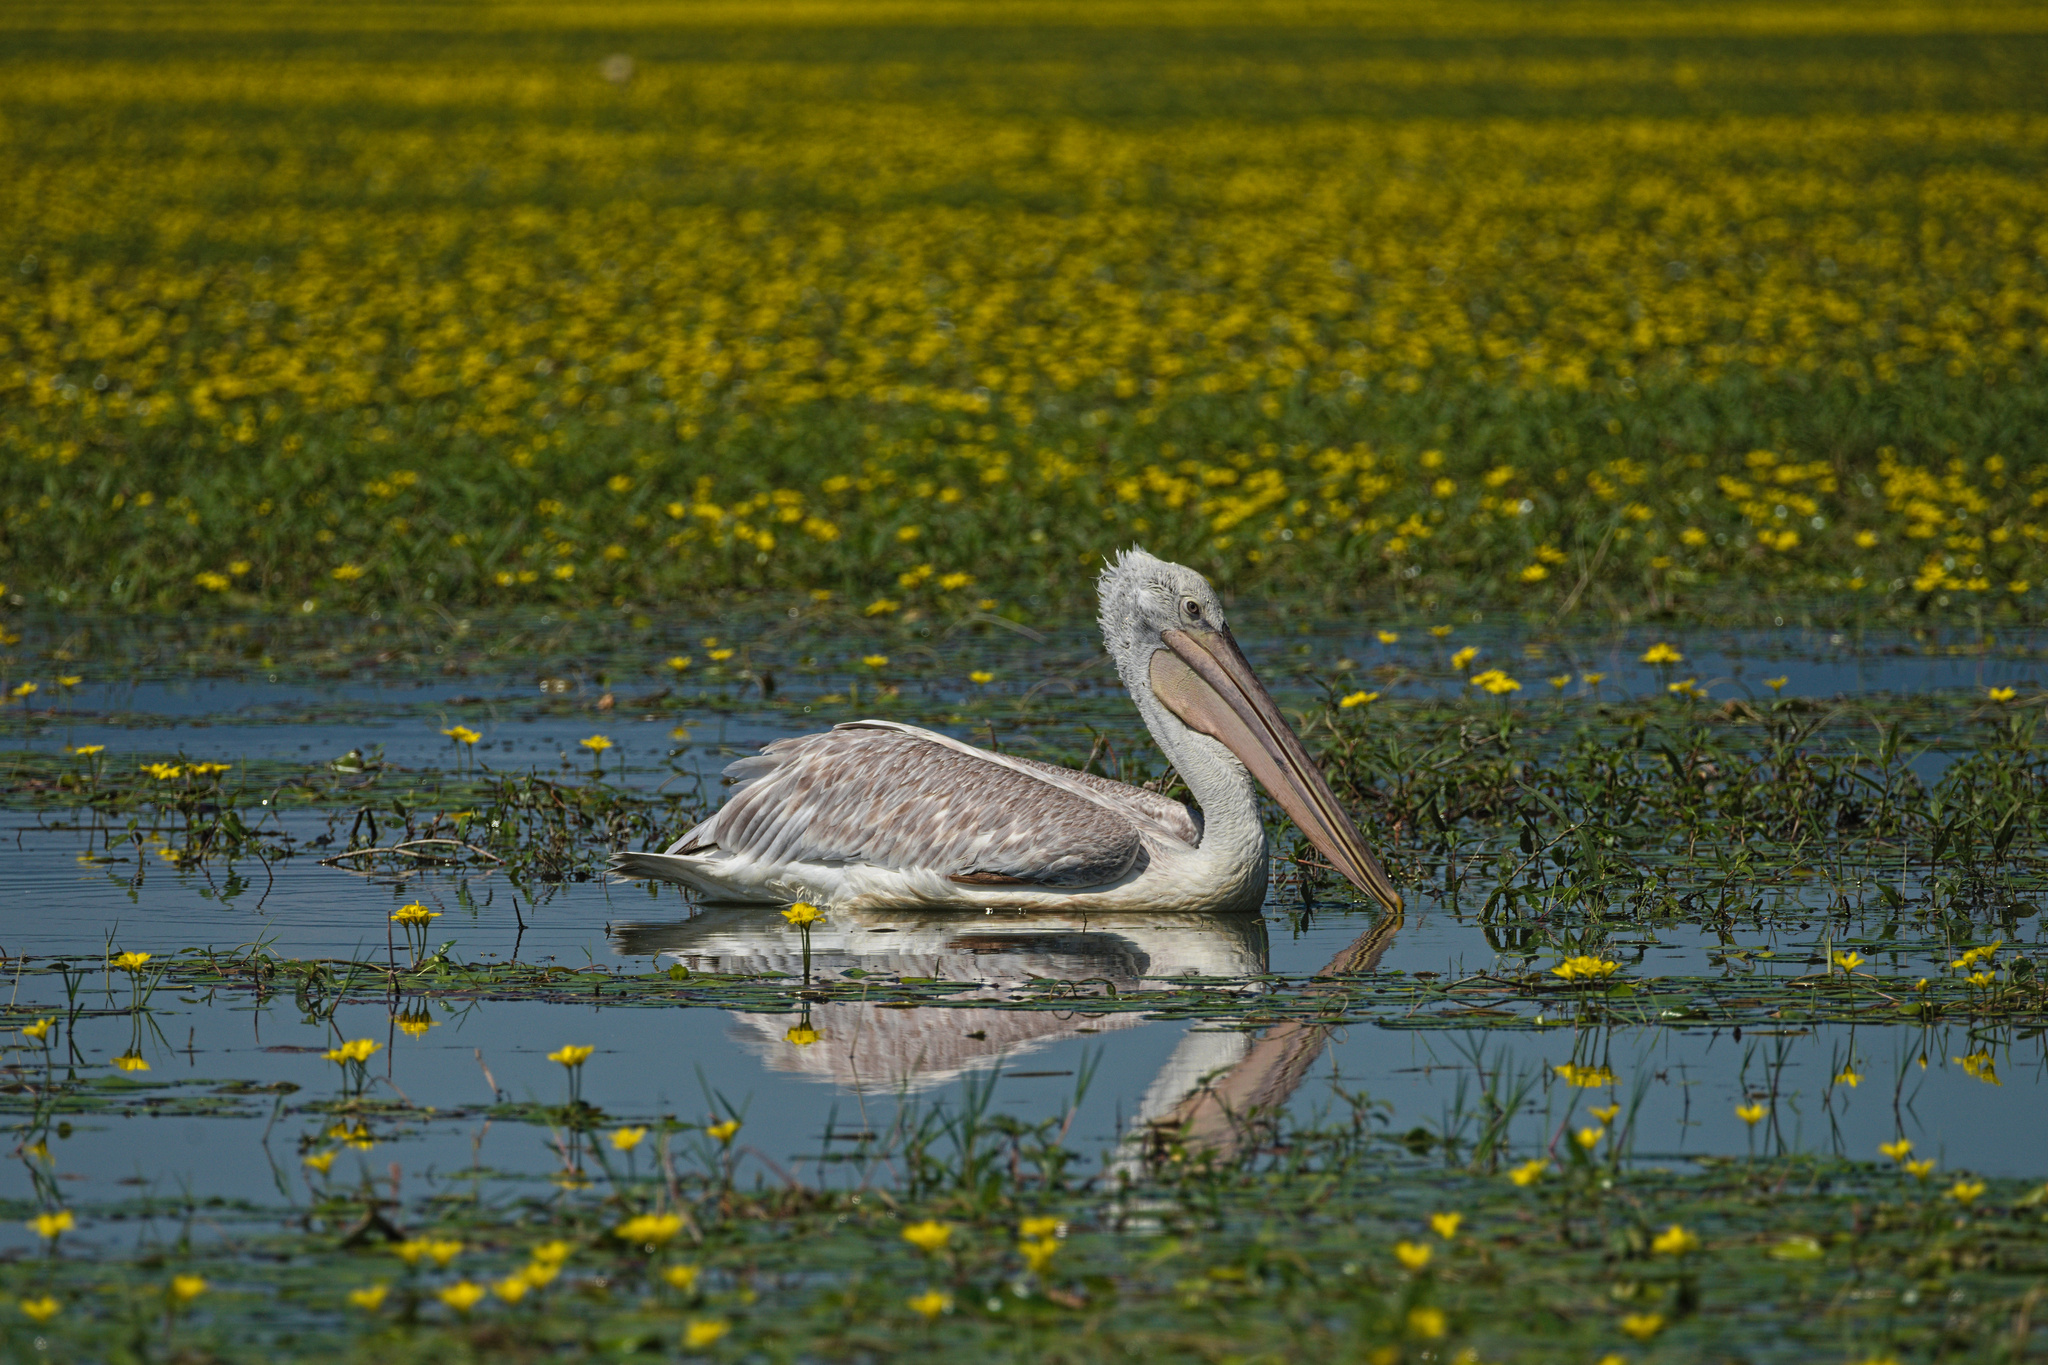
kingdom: Animalia
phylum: Chordata
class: Aves
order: Pelecaniformes
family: Pelecanidae
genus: Pelecanus
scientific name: Pelecanus crispus
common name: Dalmatian pelican
